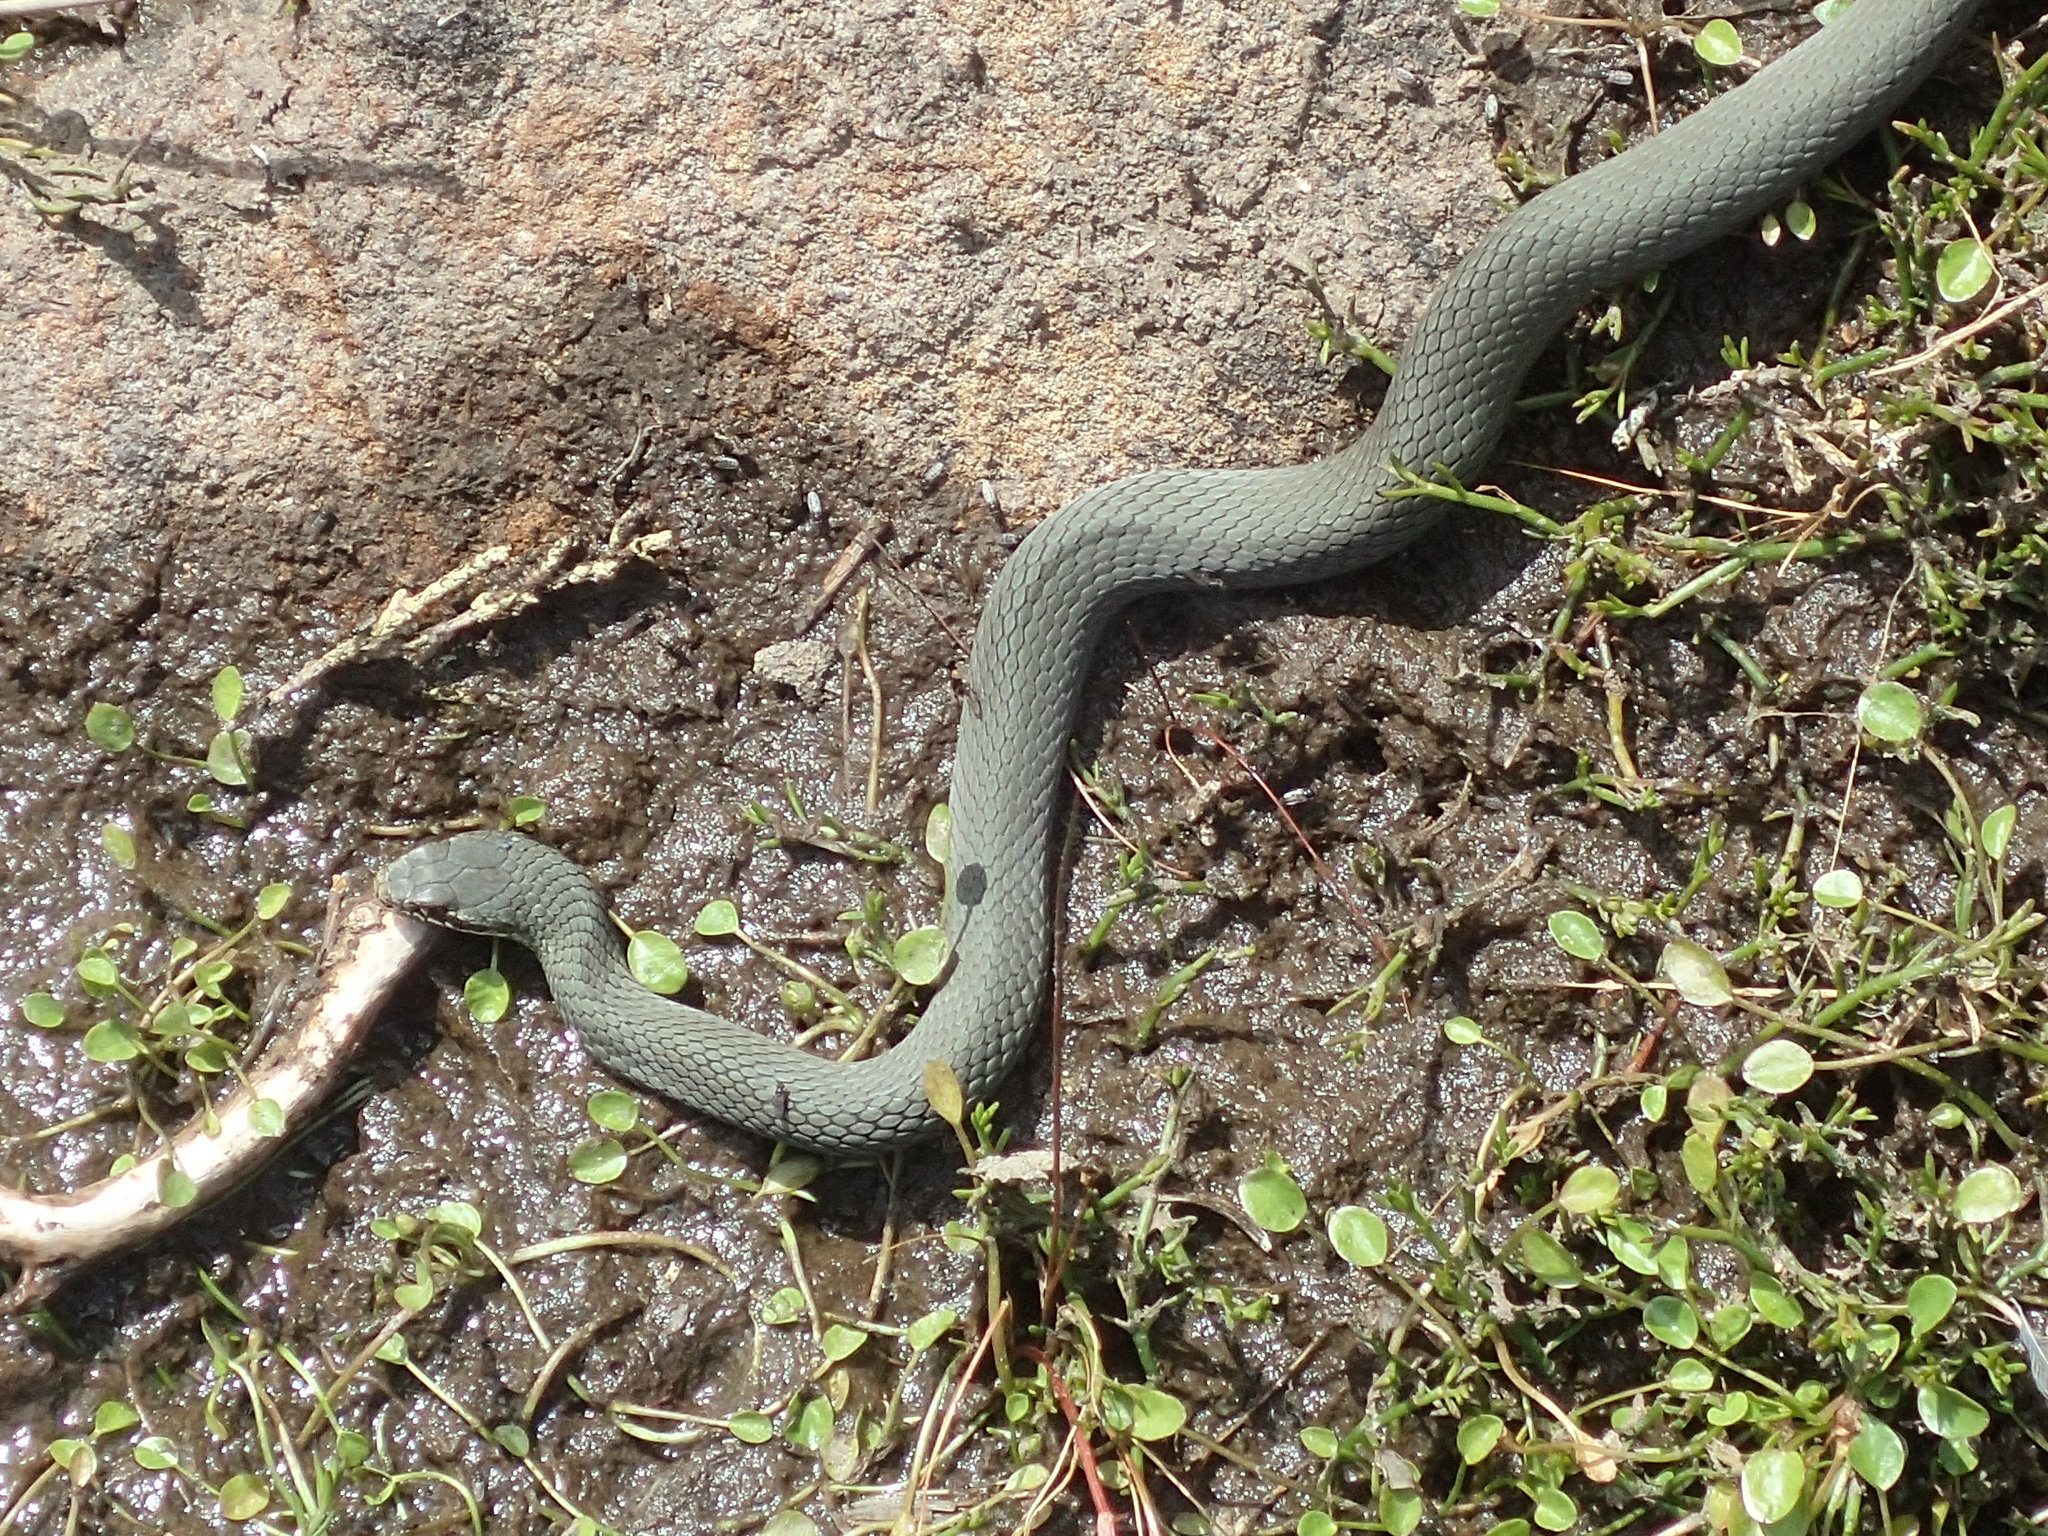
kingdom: Animalia
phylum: Chordata
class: Squamata
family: Elapidae
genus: Drysdalia
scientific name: Drysdalia coronoides
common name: White-lipped snake
